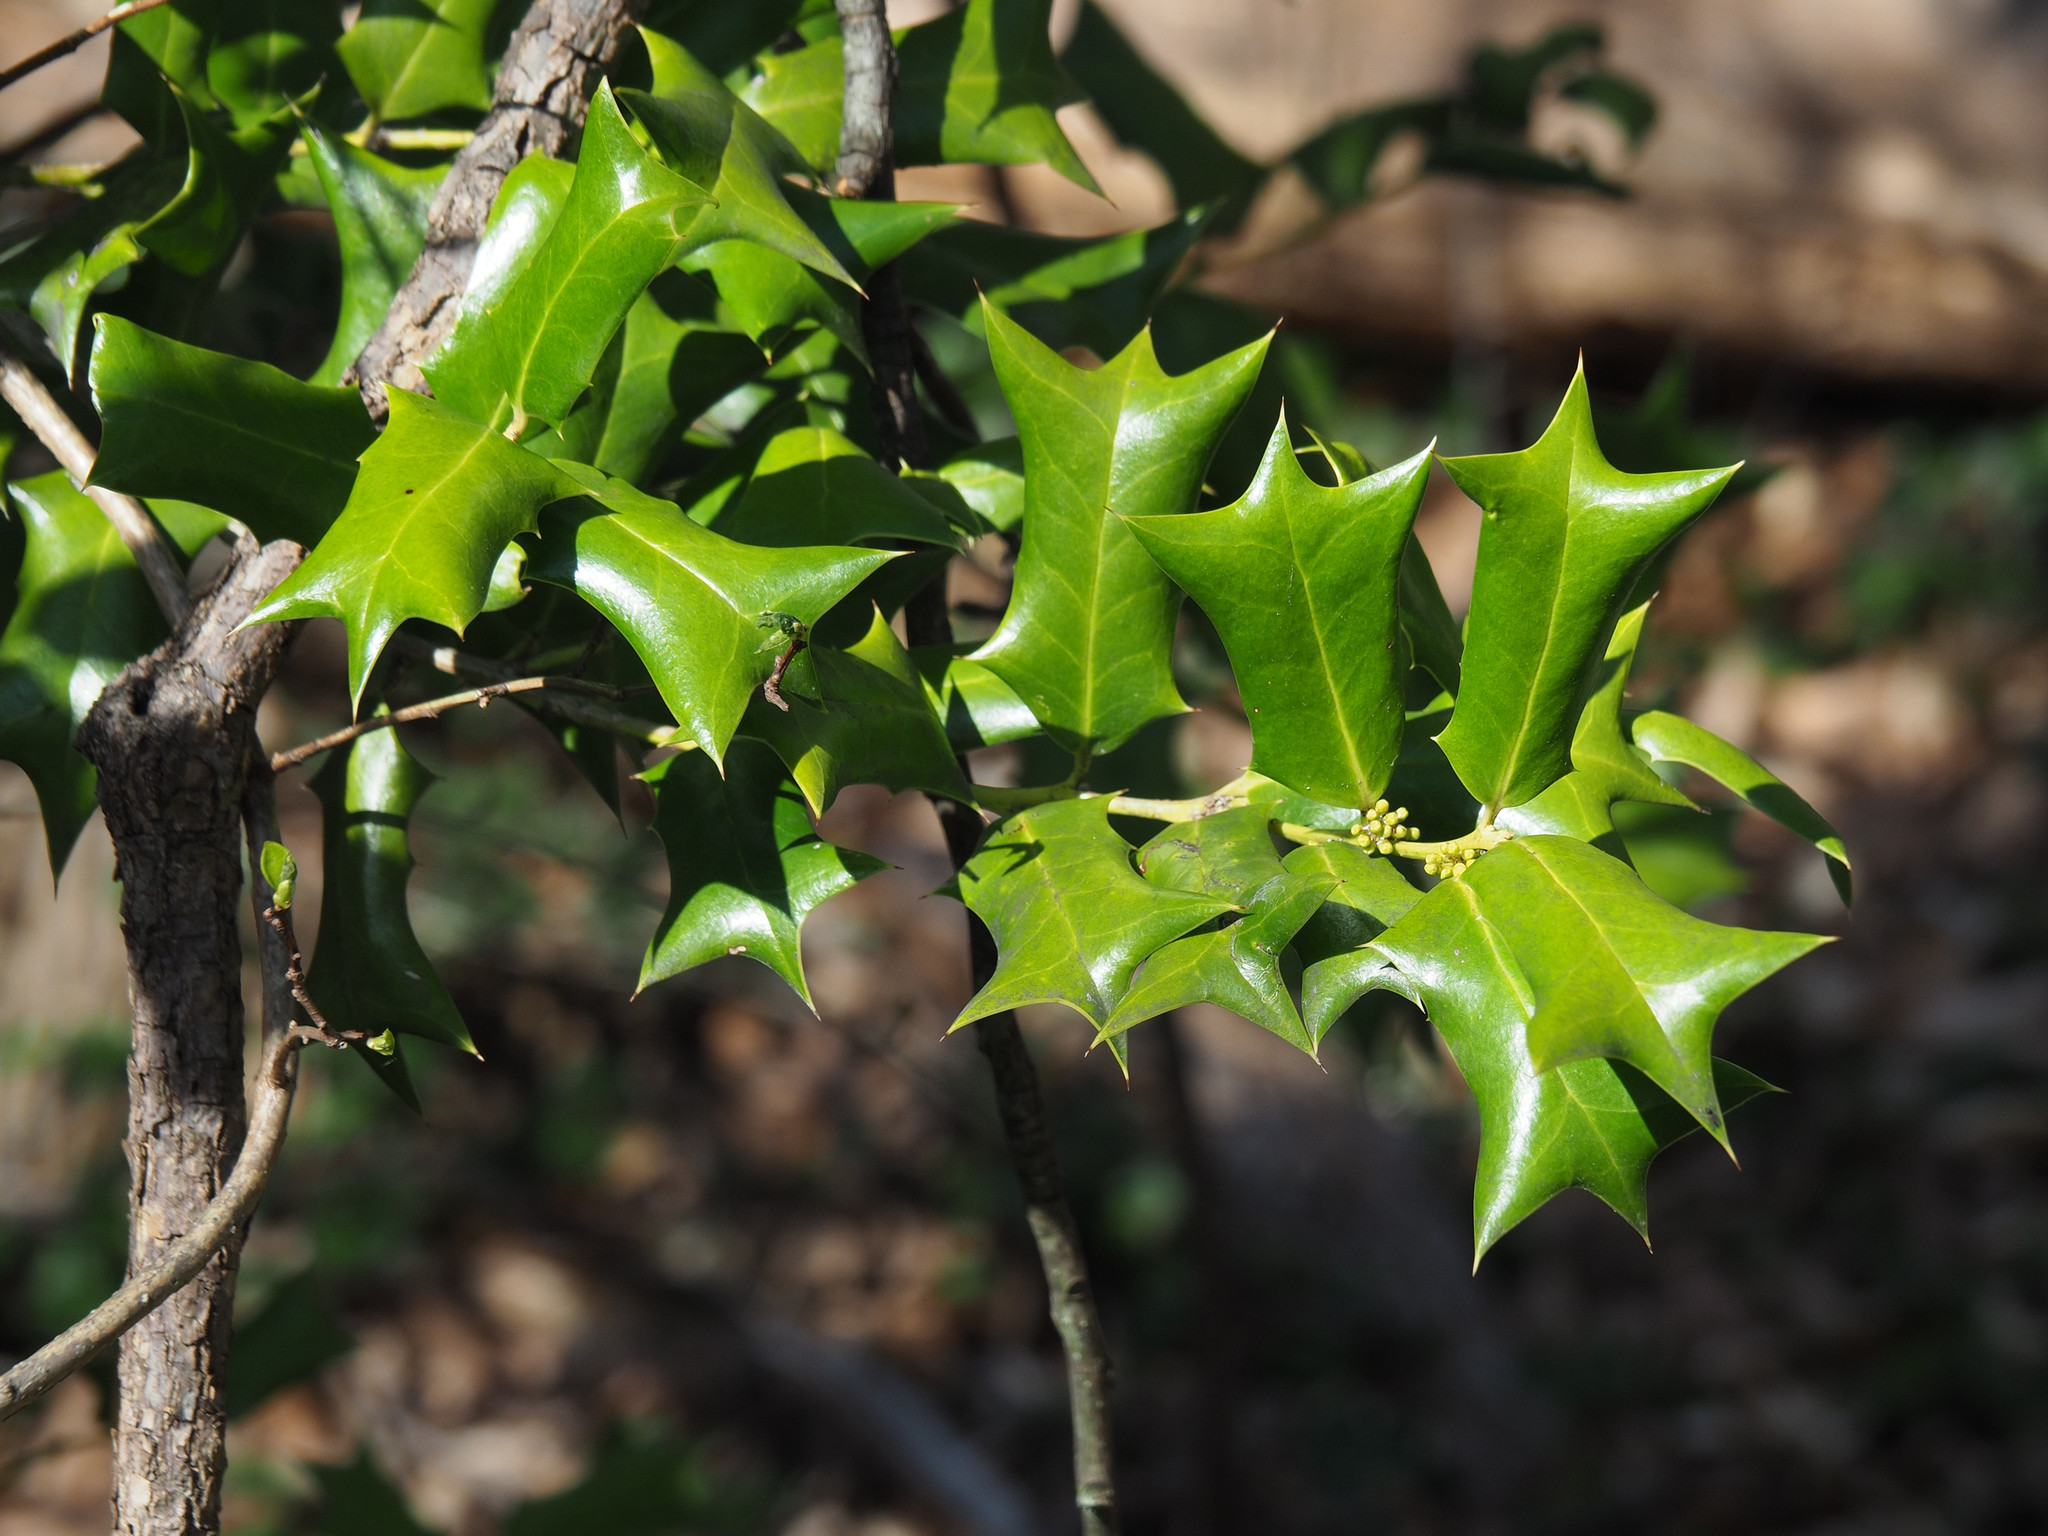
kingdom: Plantae
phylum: Tracheophyta
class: Magnoliopsida
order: Aquifoliales
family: Aquifoliaceae
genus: Ilex
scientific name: Ilex cornuta
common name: Chinese holly
